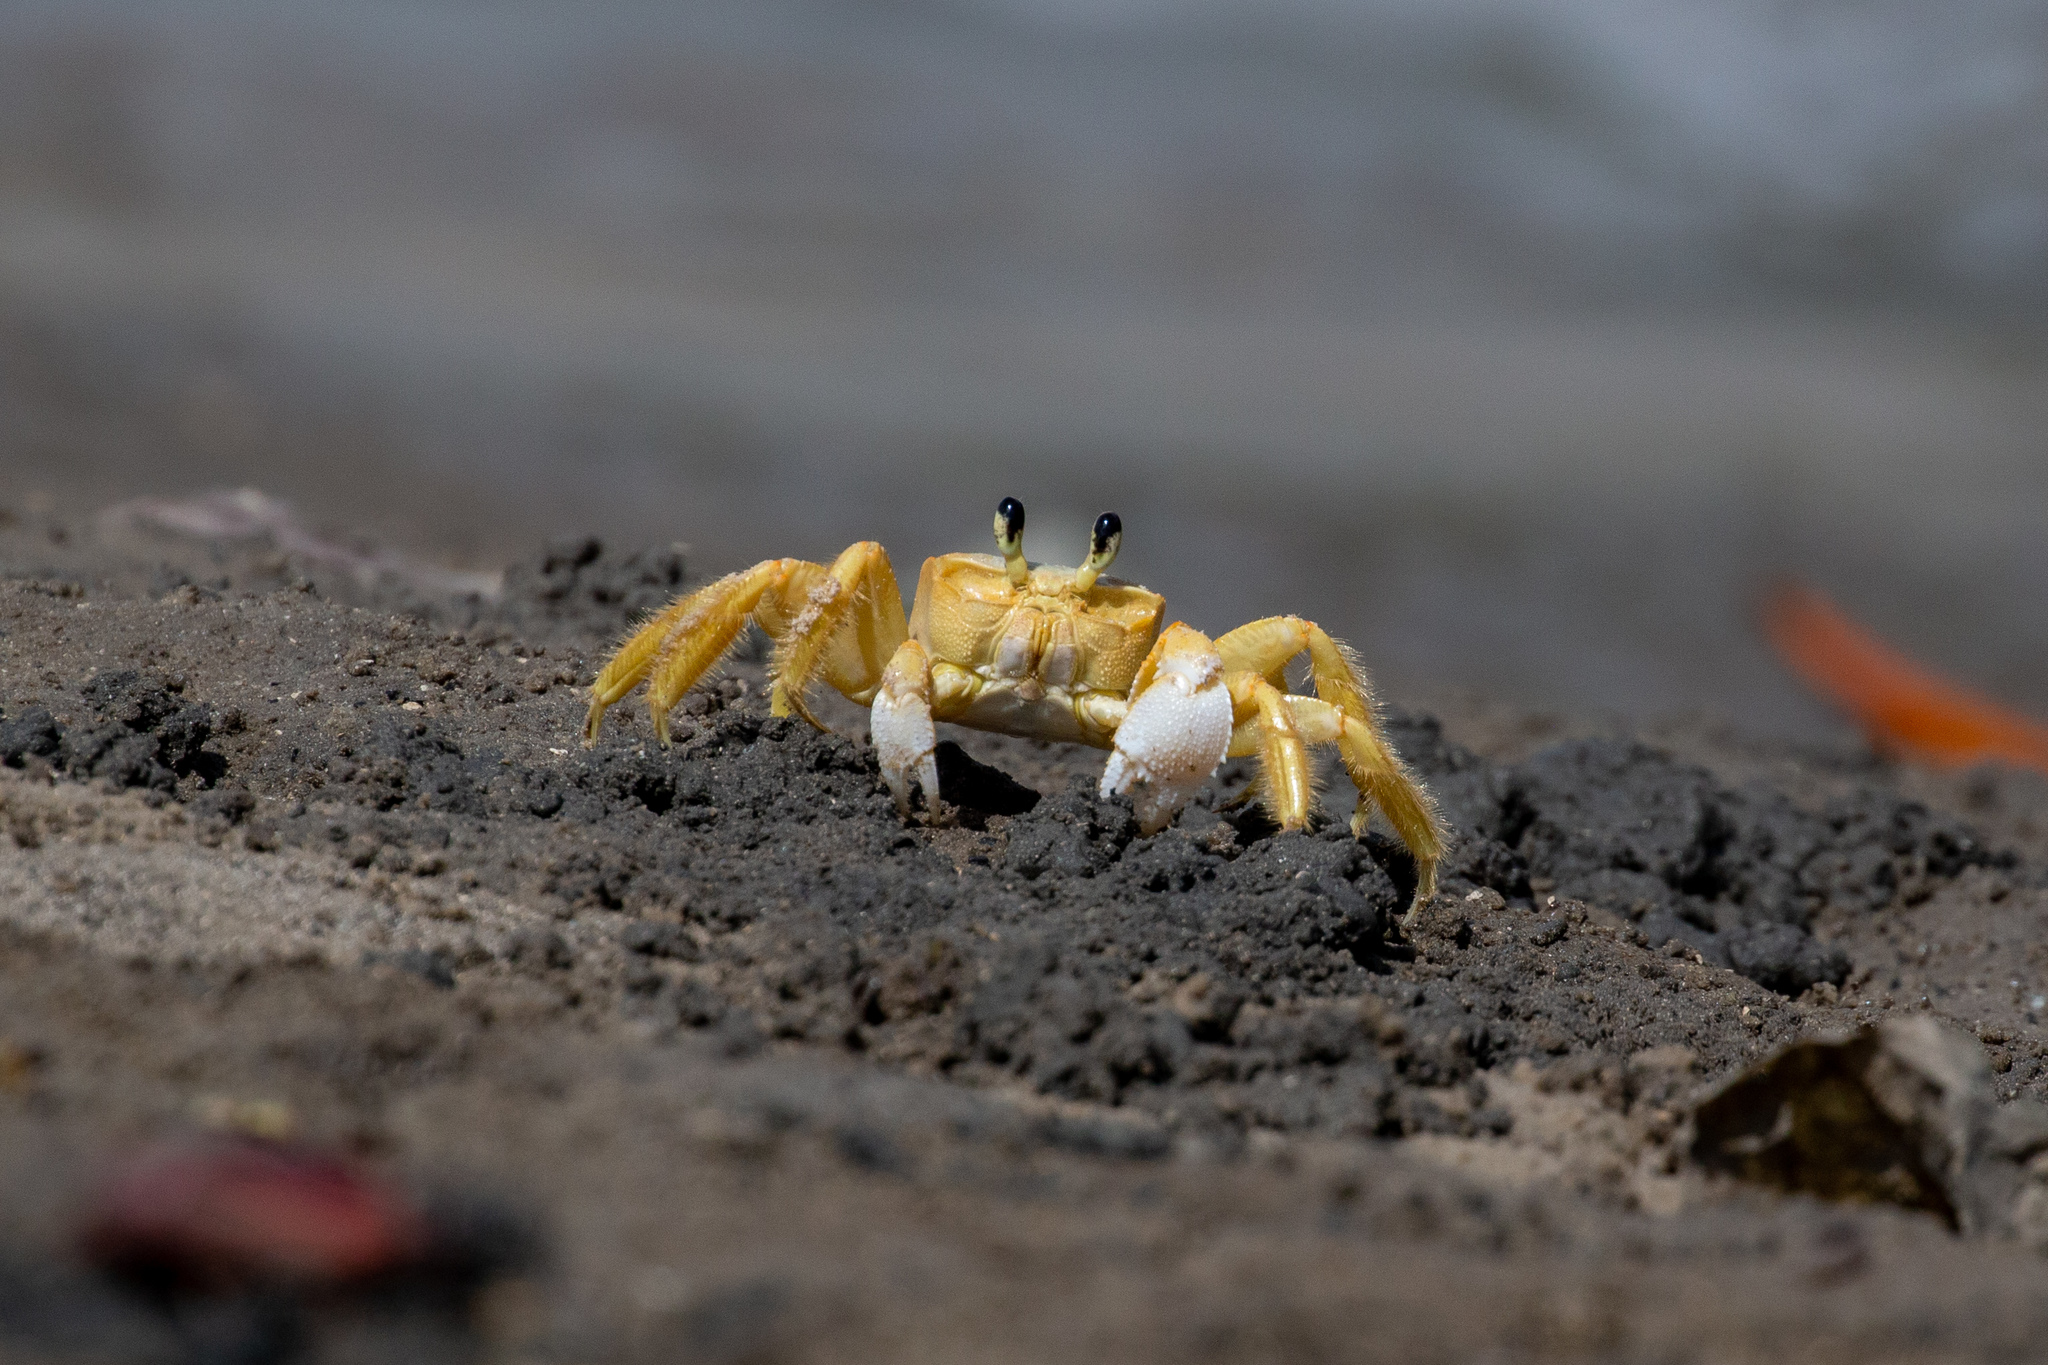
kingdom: Animalia
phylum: Arthropoda
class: Malacostraca
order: Decapoda
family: Ocypodidae
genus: Ocypode
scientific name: Ocypode quadrata
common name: Ghost crab
